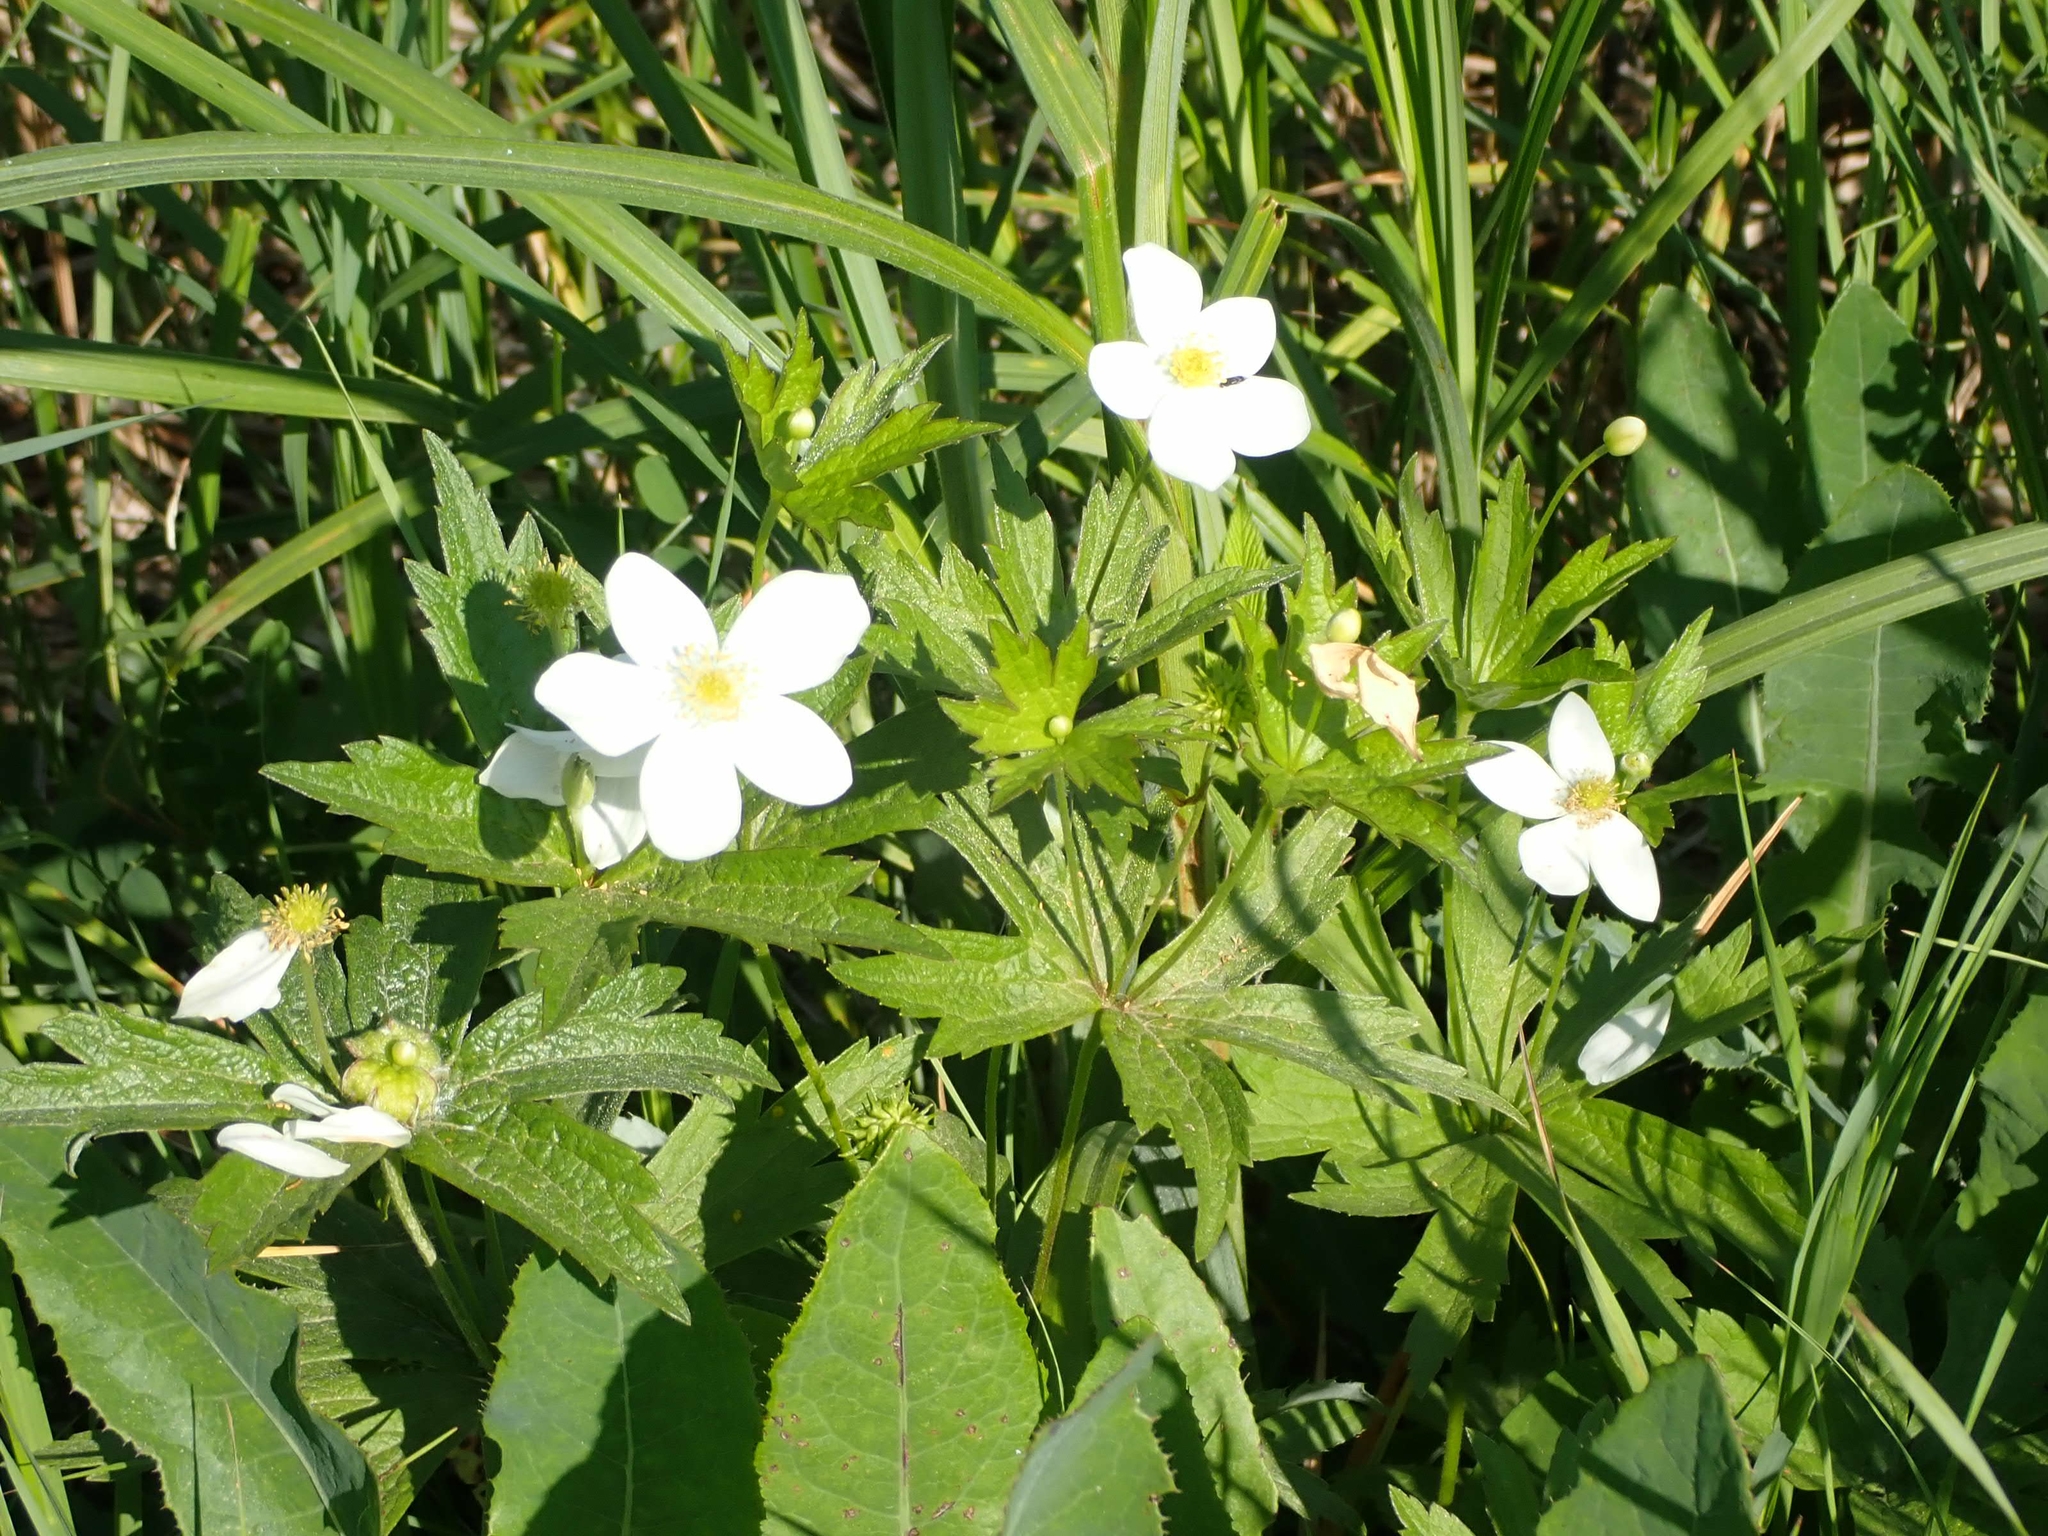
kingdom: Plantae
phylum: Tracheophyta
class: Magnoliopsida
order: Ranunculales
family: Ranunculaceae
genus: Anemonastrum
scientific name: Anemonastrum canadense
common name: Canada anemone
